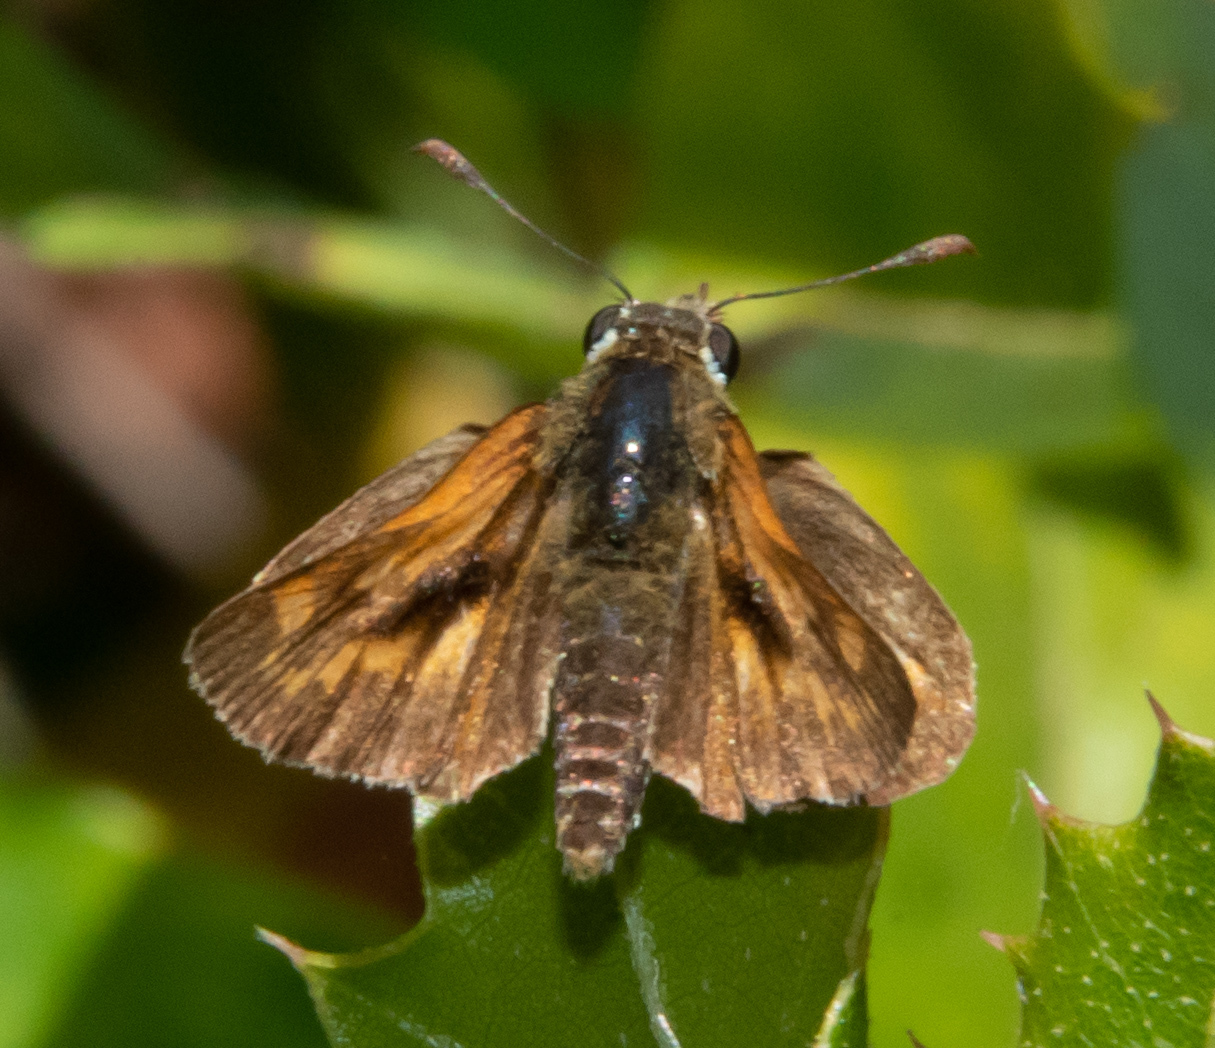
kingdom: Animalia
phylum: Arthropoda
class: Insecta
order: Lepidoptera
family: Hesperiidae
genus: Ochlodes
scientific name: Ochlodes agricola
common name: Rural skipper
